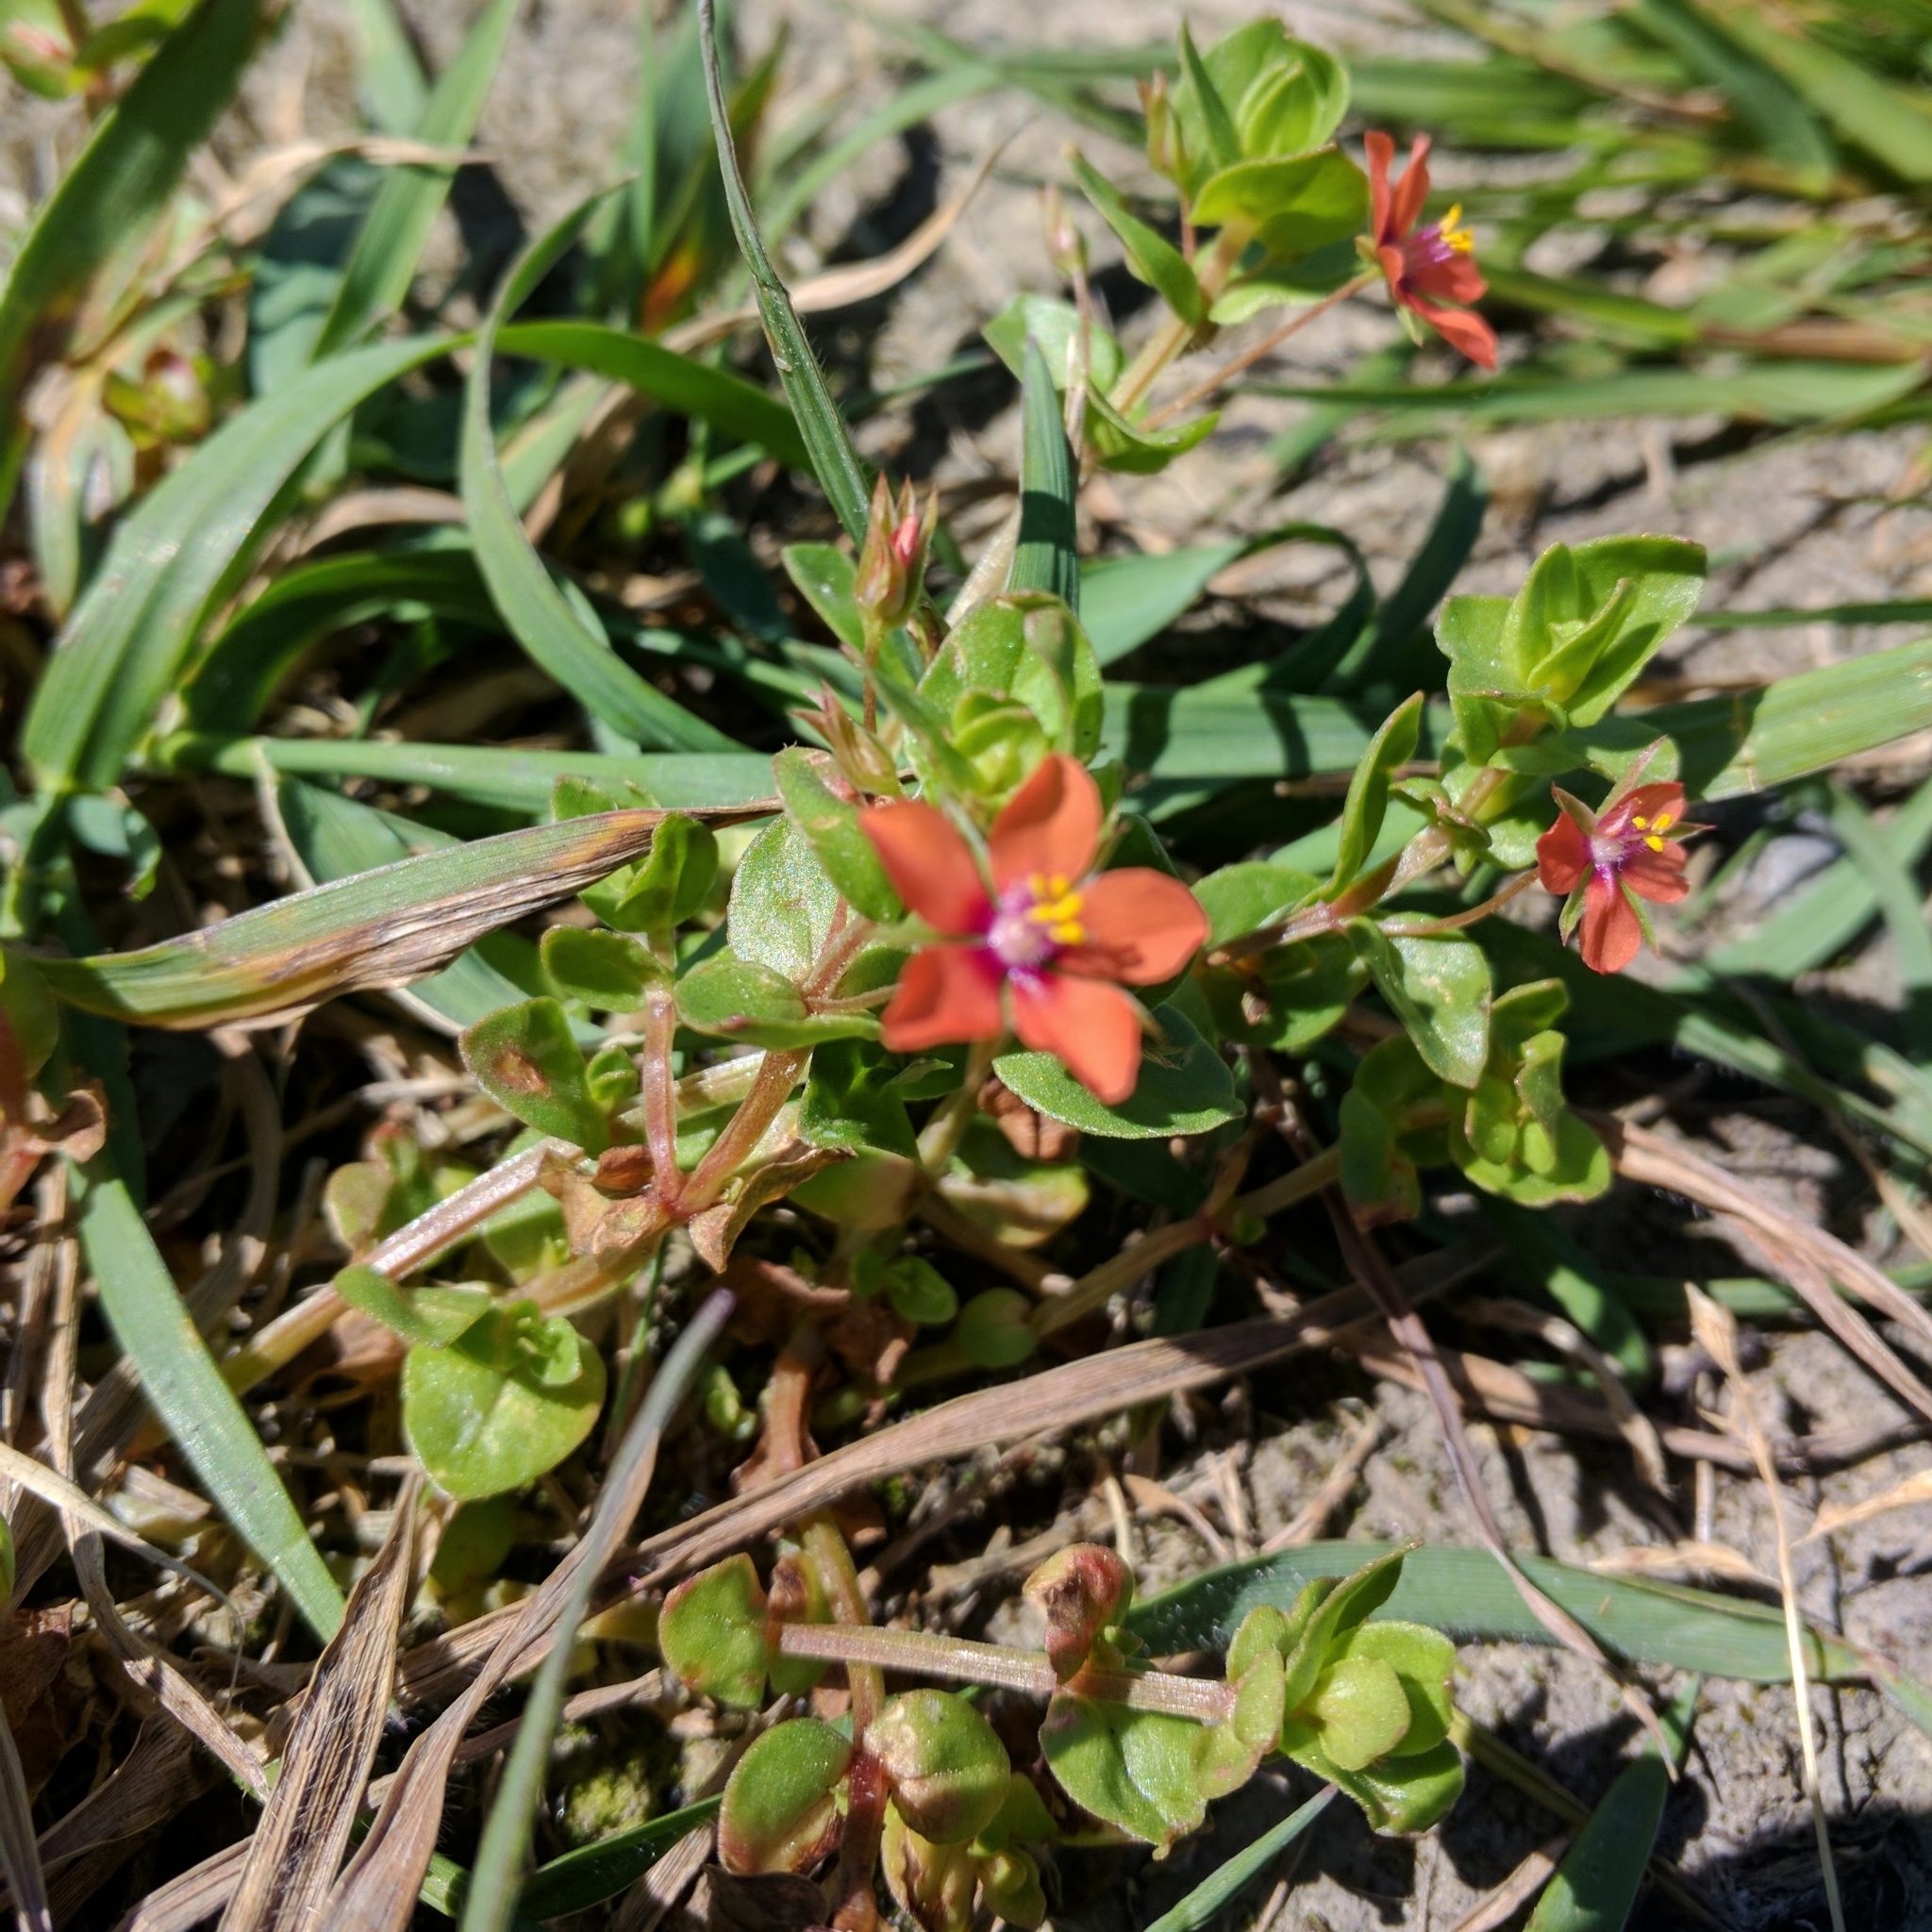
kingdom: Plantae
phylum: Tracheophyta
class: Magnoliopsida
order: Ericales
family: Primulaceae
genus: Lysimachia
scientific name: Lysimachia arvensis
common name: Scarlet pimpernel
